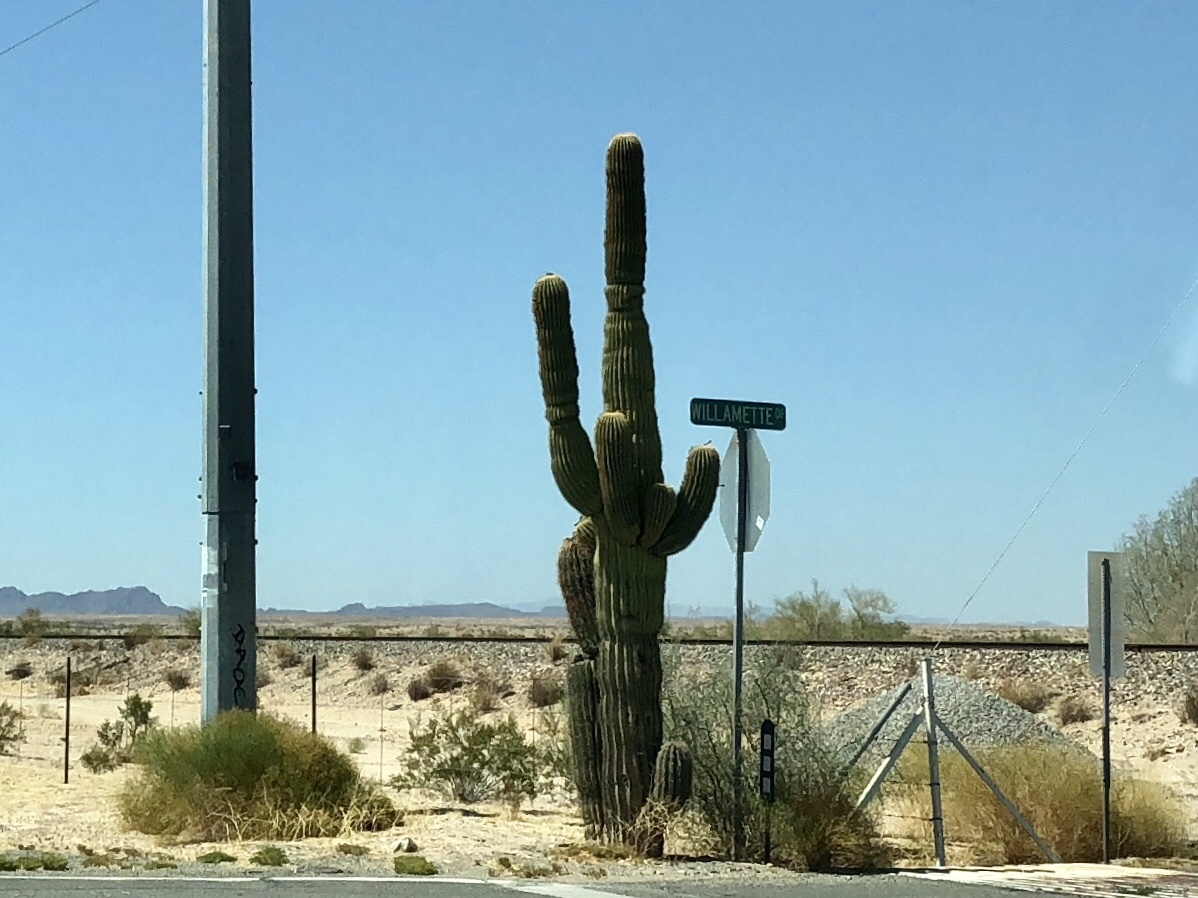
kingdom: Plantae
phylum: Tracheophyta
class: Magnoliopsida
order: Caryophyllales
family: Cactaceae
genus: Carnegiea
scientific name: Carnegiea gigantea
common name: Saguaro
